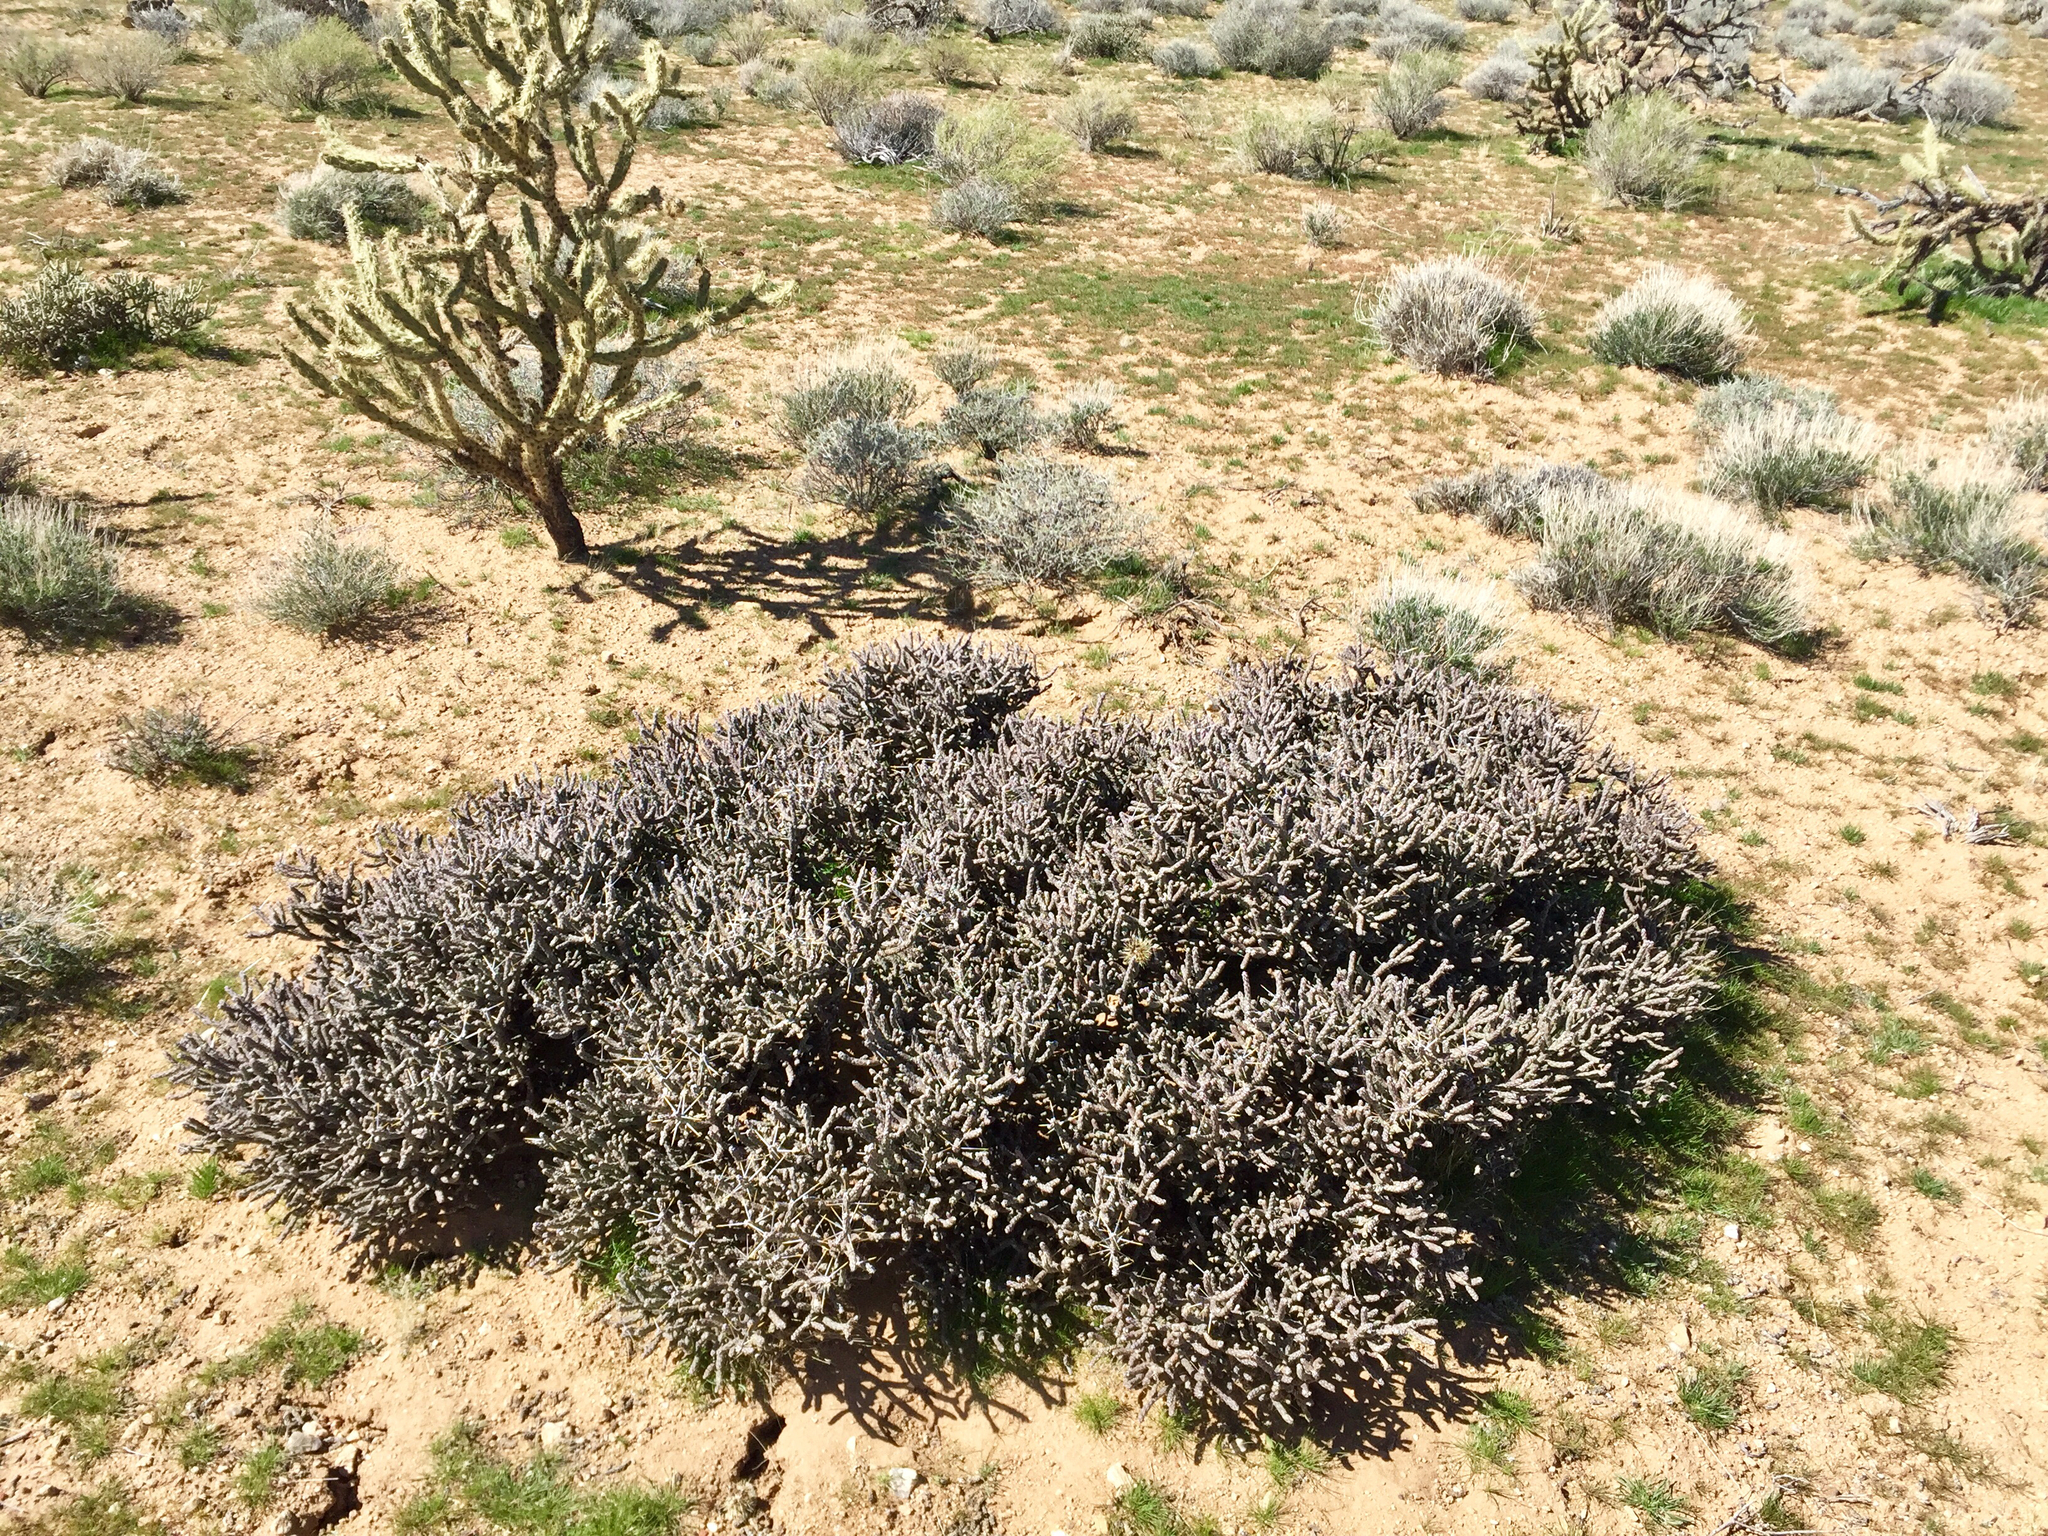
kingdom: Plantae
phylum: Tracheophyta
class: Magnoliopsida
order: Caryophyllales
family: Cactaceae
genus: Cylindropuntia
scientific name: Cylindropuntia ramosissima
